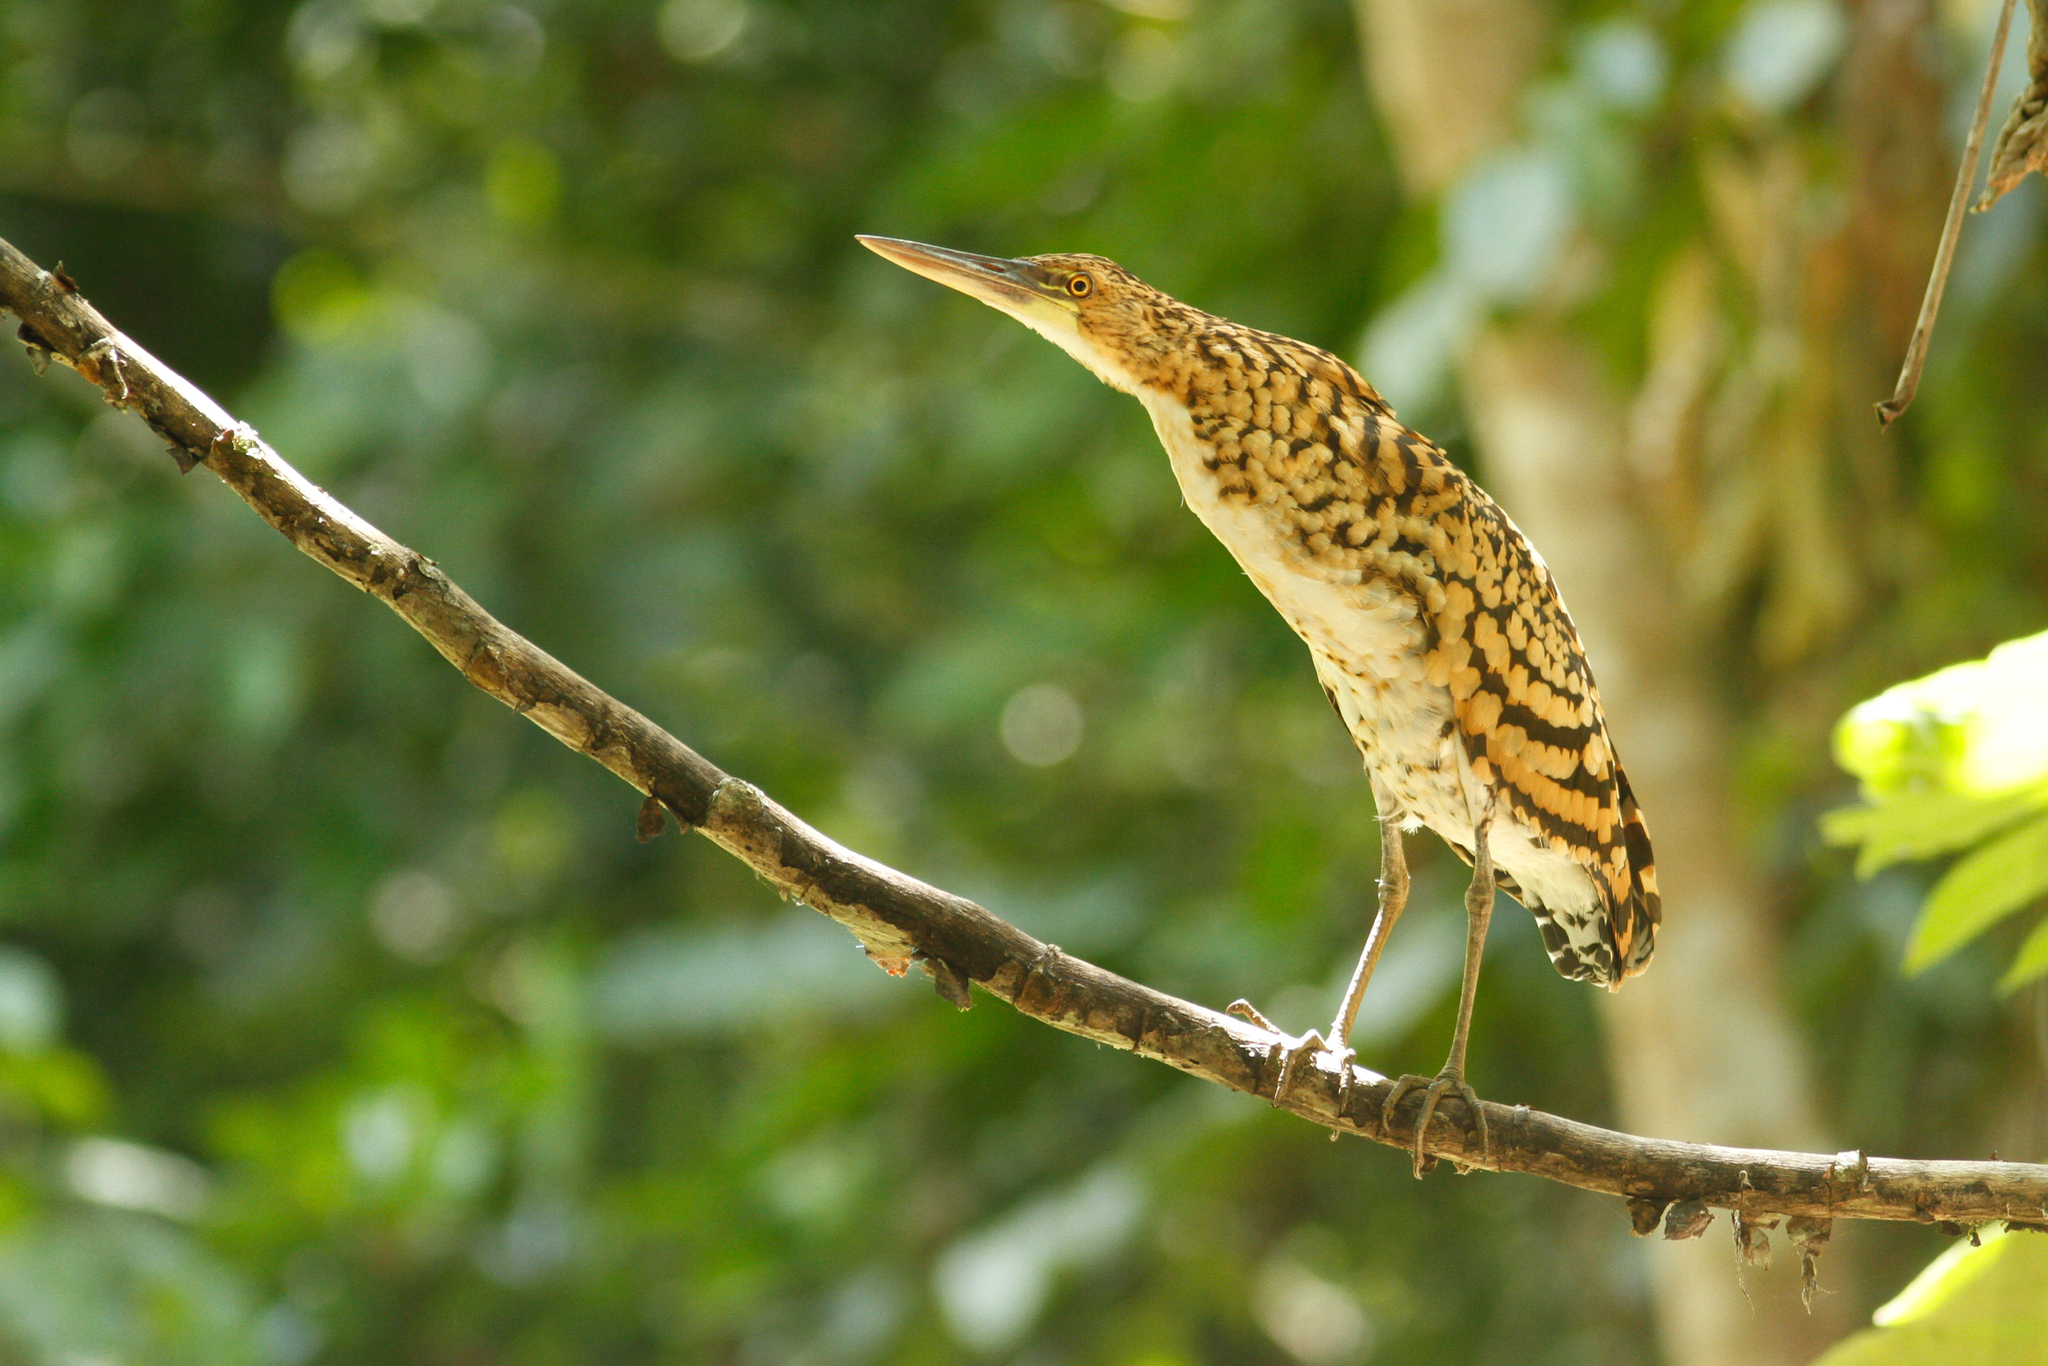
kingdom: Animalia
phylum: Chordata
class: Aves
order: Pelecaniformes
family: Ardeidae
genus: Tigrisoma
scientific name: Tigrisoma lineatum
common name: Rufescent tiger-heron
